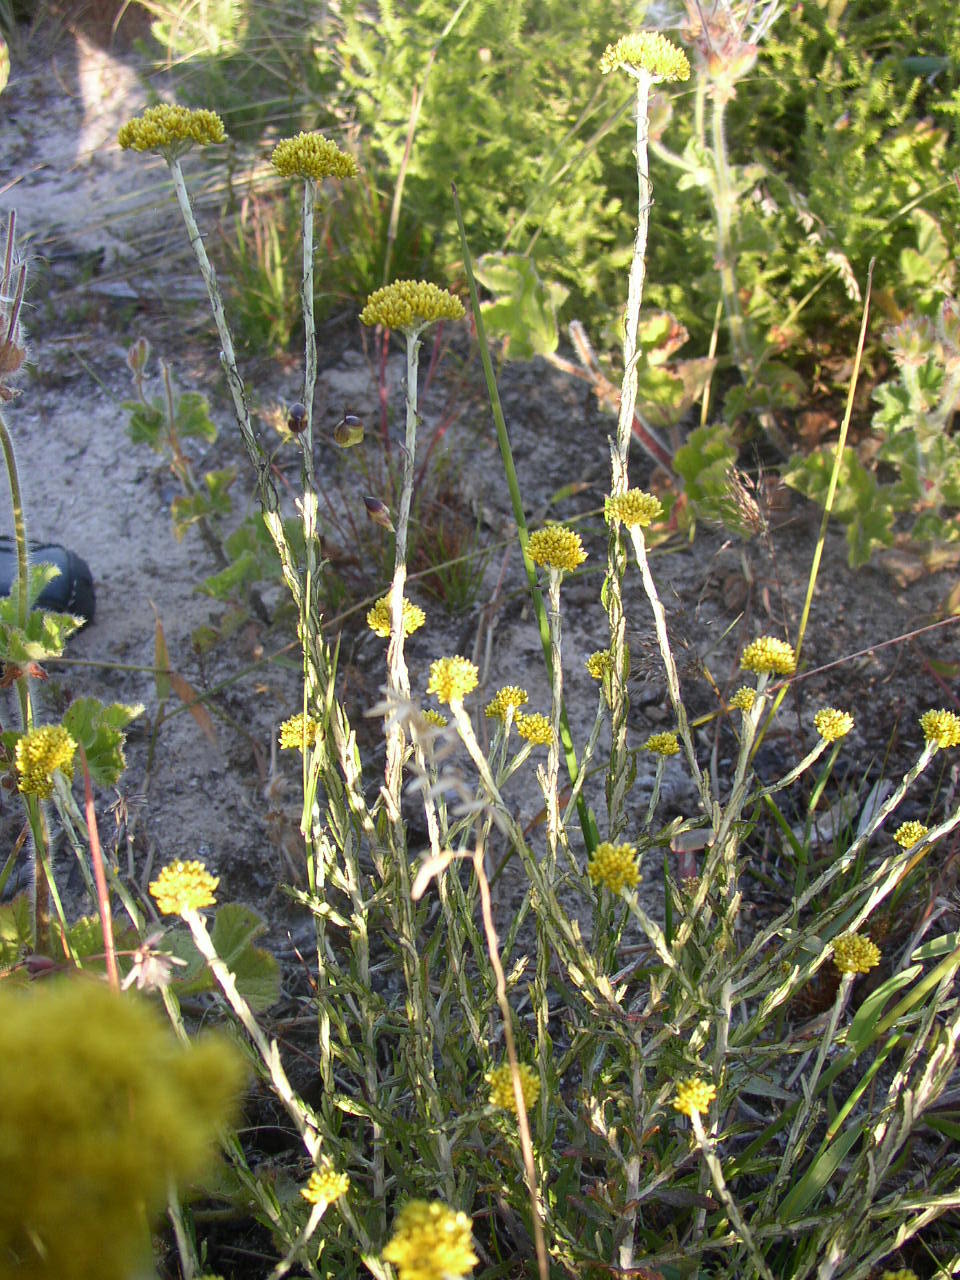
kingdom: Plantae
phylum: Tracheophyta
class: Magnoliopsida
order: Asterales
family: Asteraceae
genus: Helichrysum
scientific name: Helichrysum cymosum
